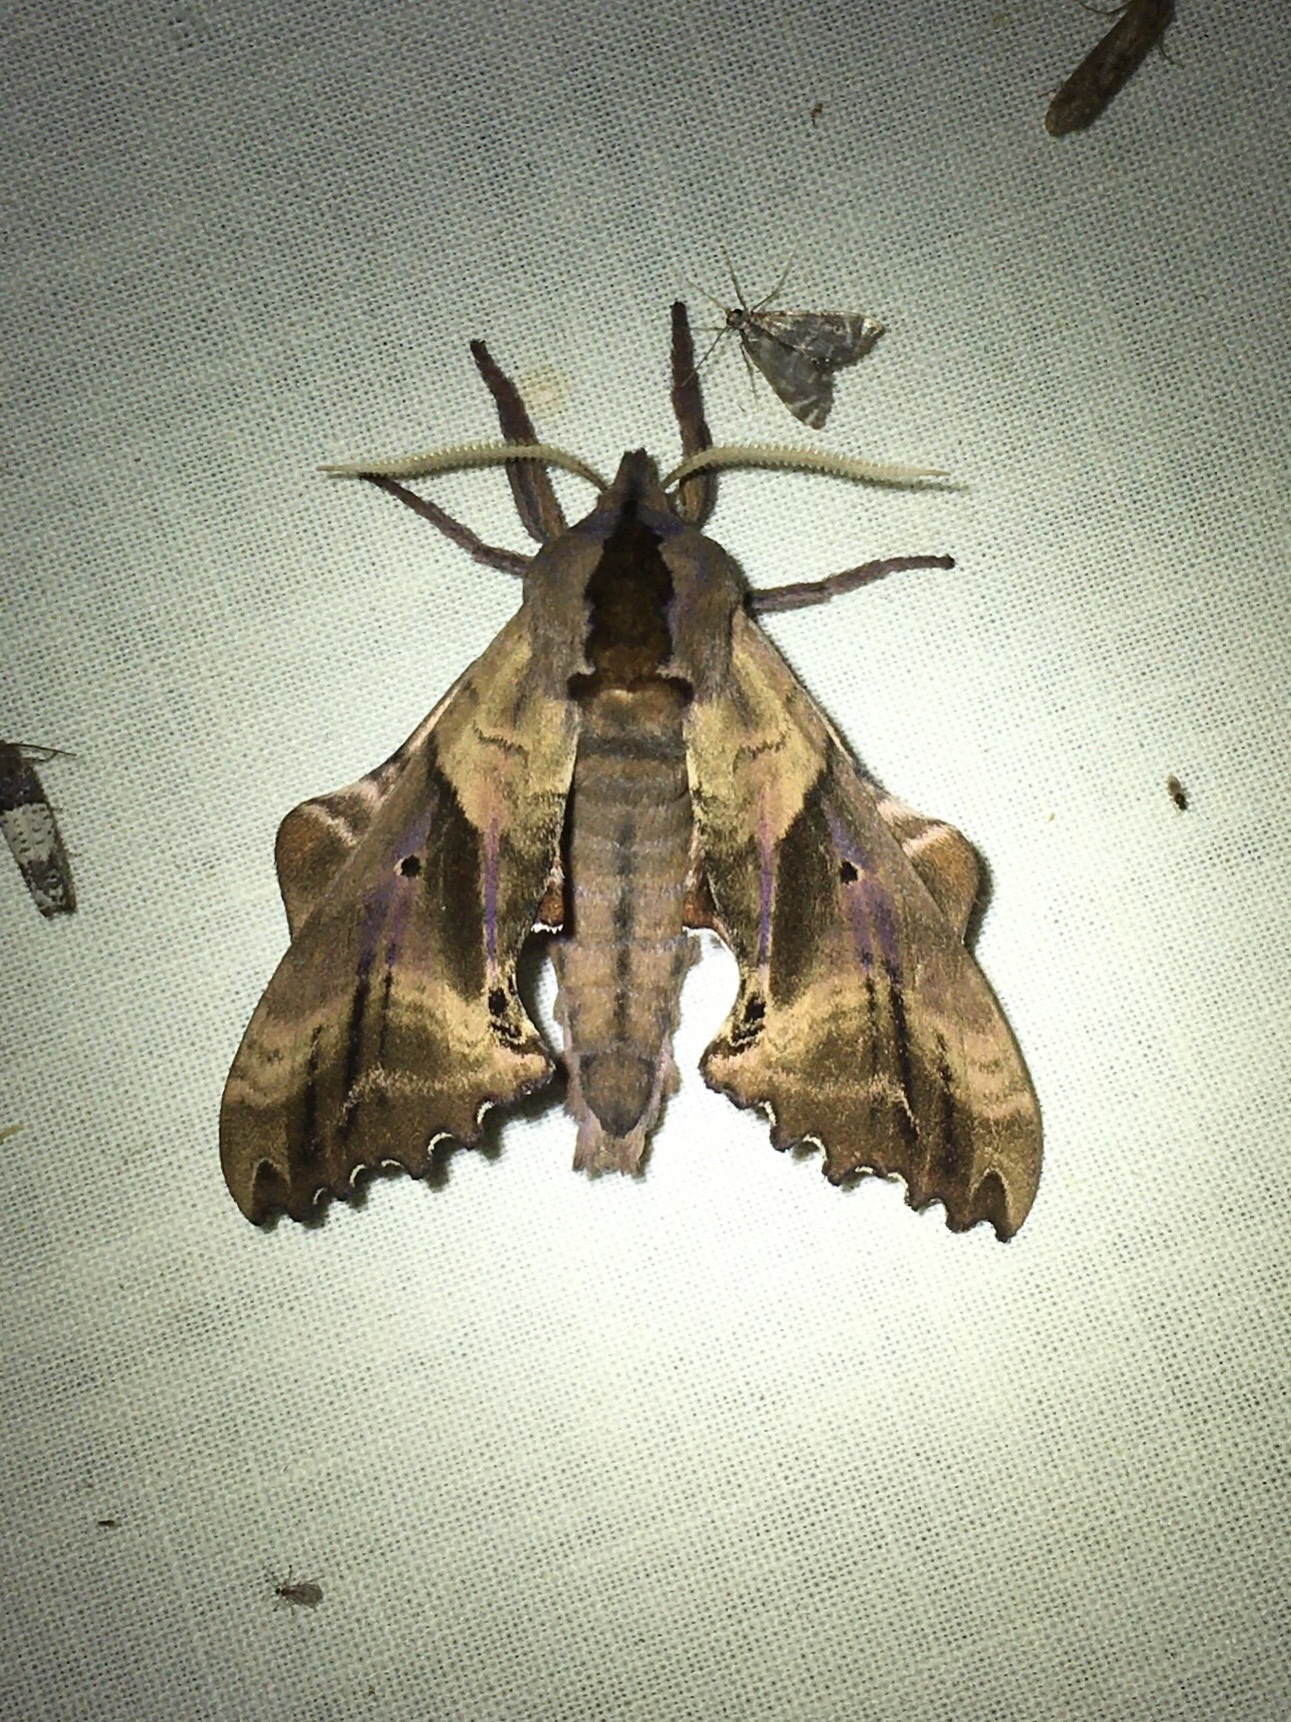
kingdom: Animalia
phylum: Arthropoda
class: Insecta
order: Lepidoptera
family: Sphingidae
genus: Paonias
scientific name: Paonias excaecata
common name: Blind-eyed sphinx
